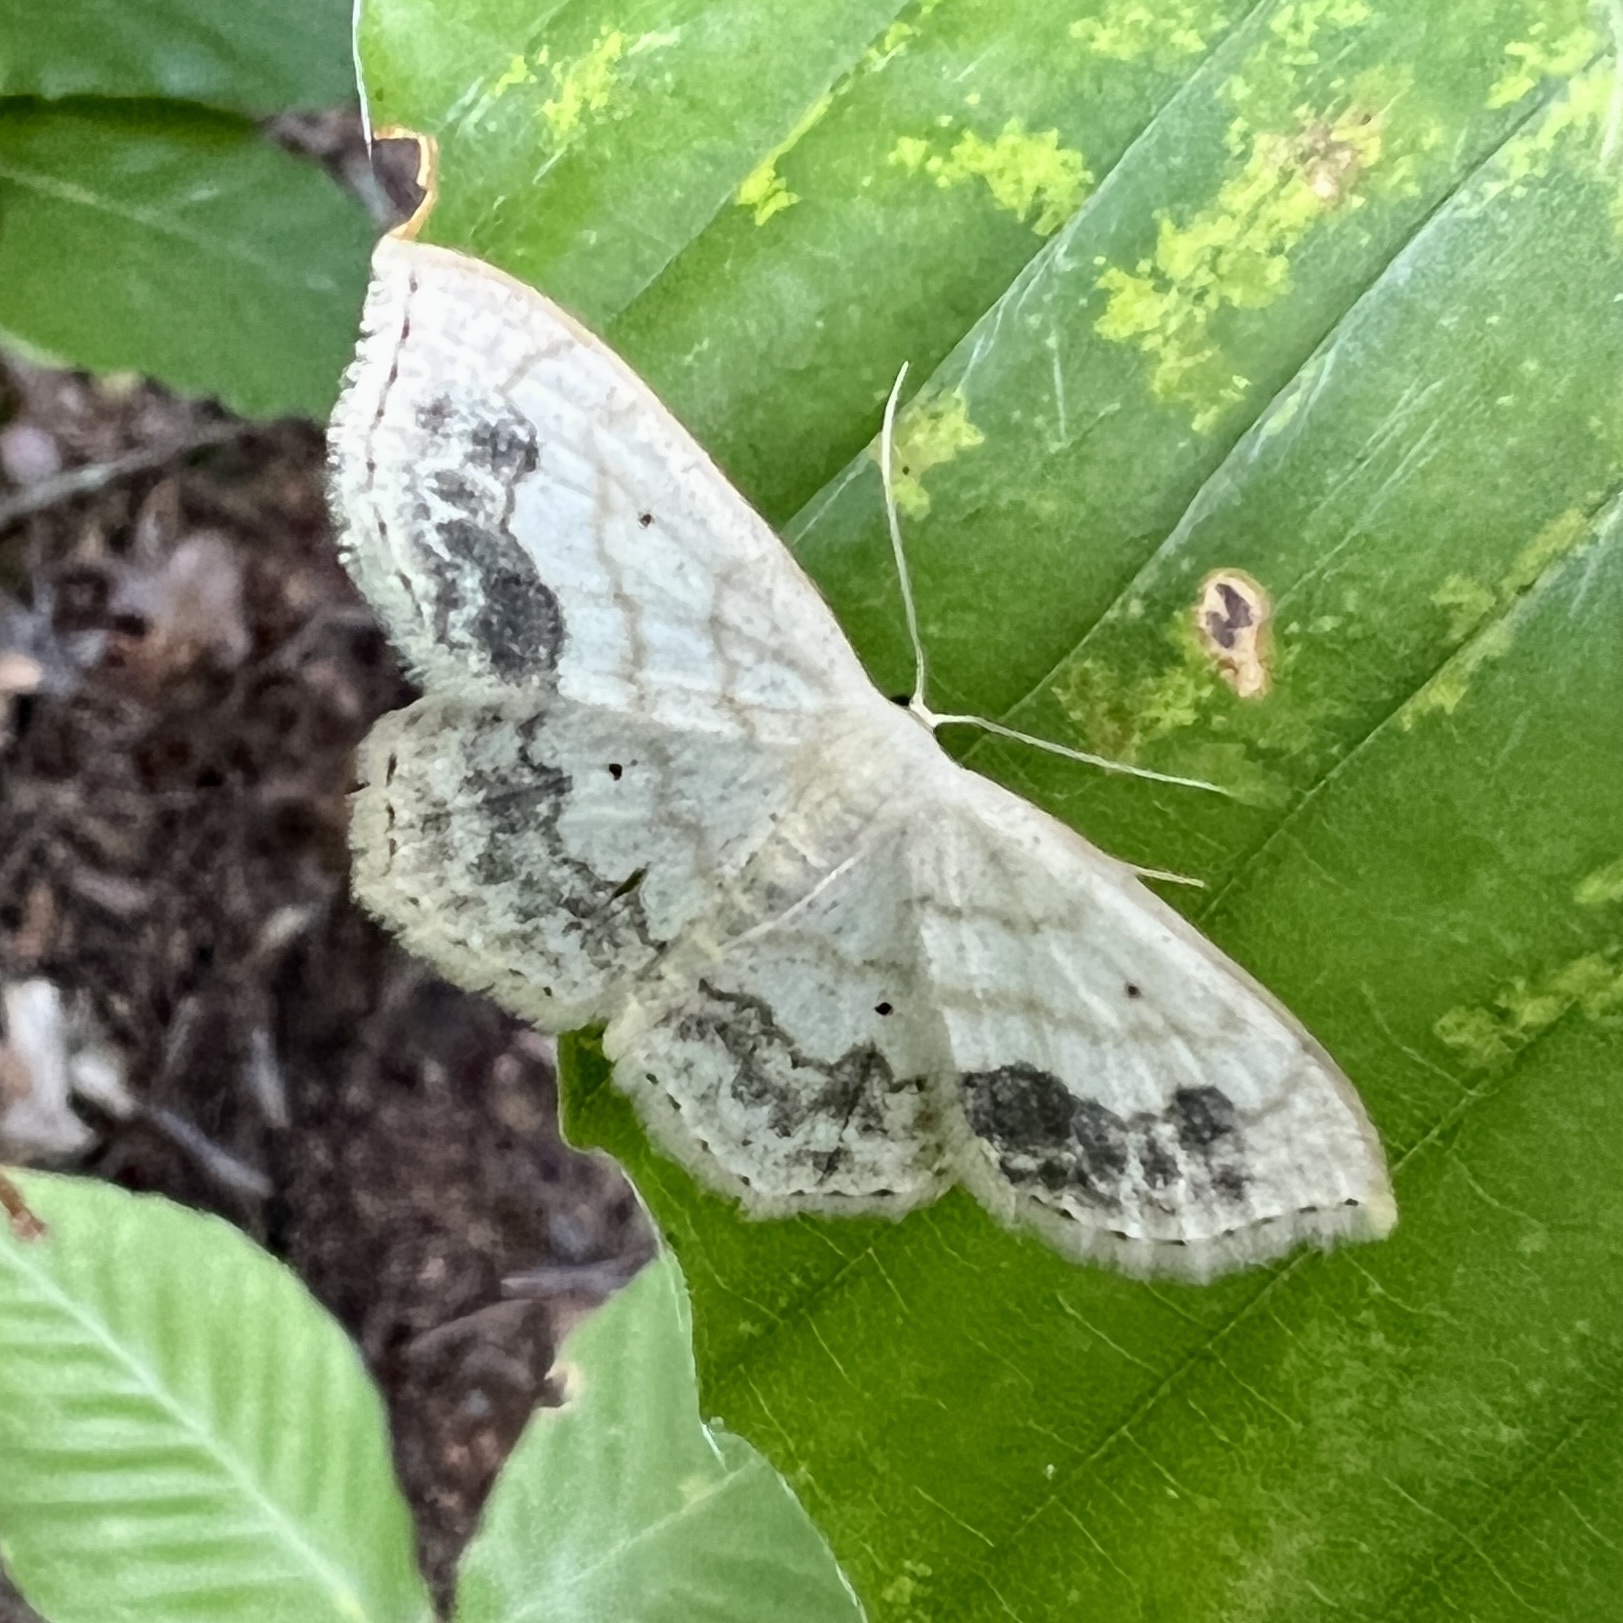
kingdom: Animalia
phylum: Arthropoda
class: Insecta
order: Lepidoptera
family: Geometridae
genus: Scopula
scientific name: Scopula limboundata
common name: Large lace border
